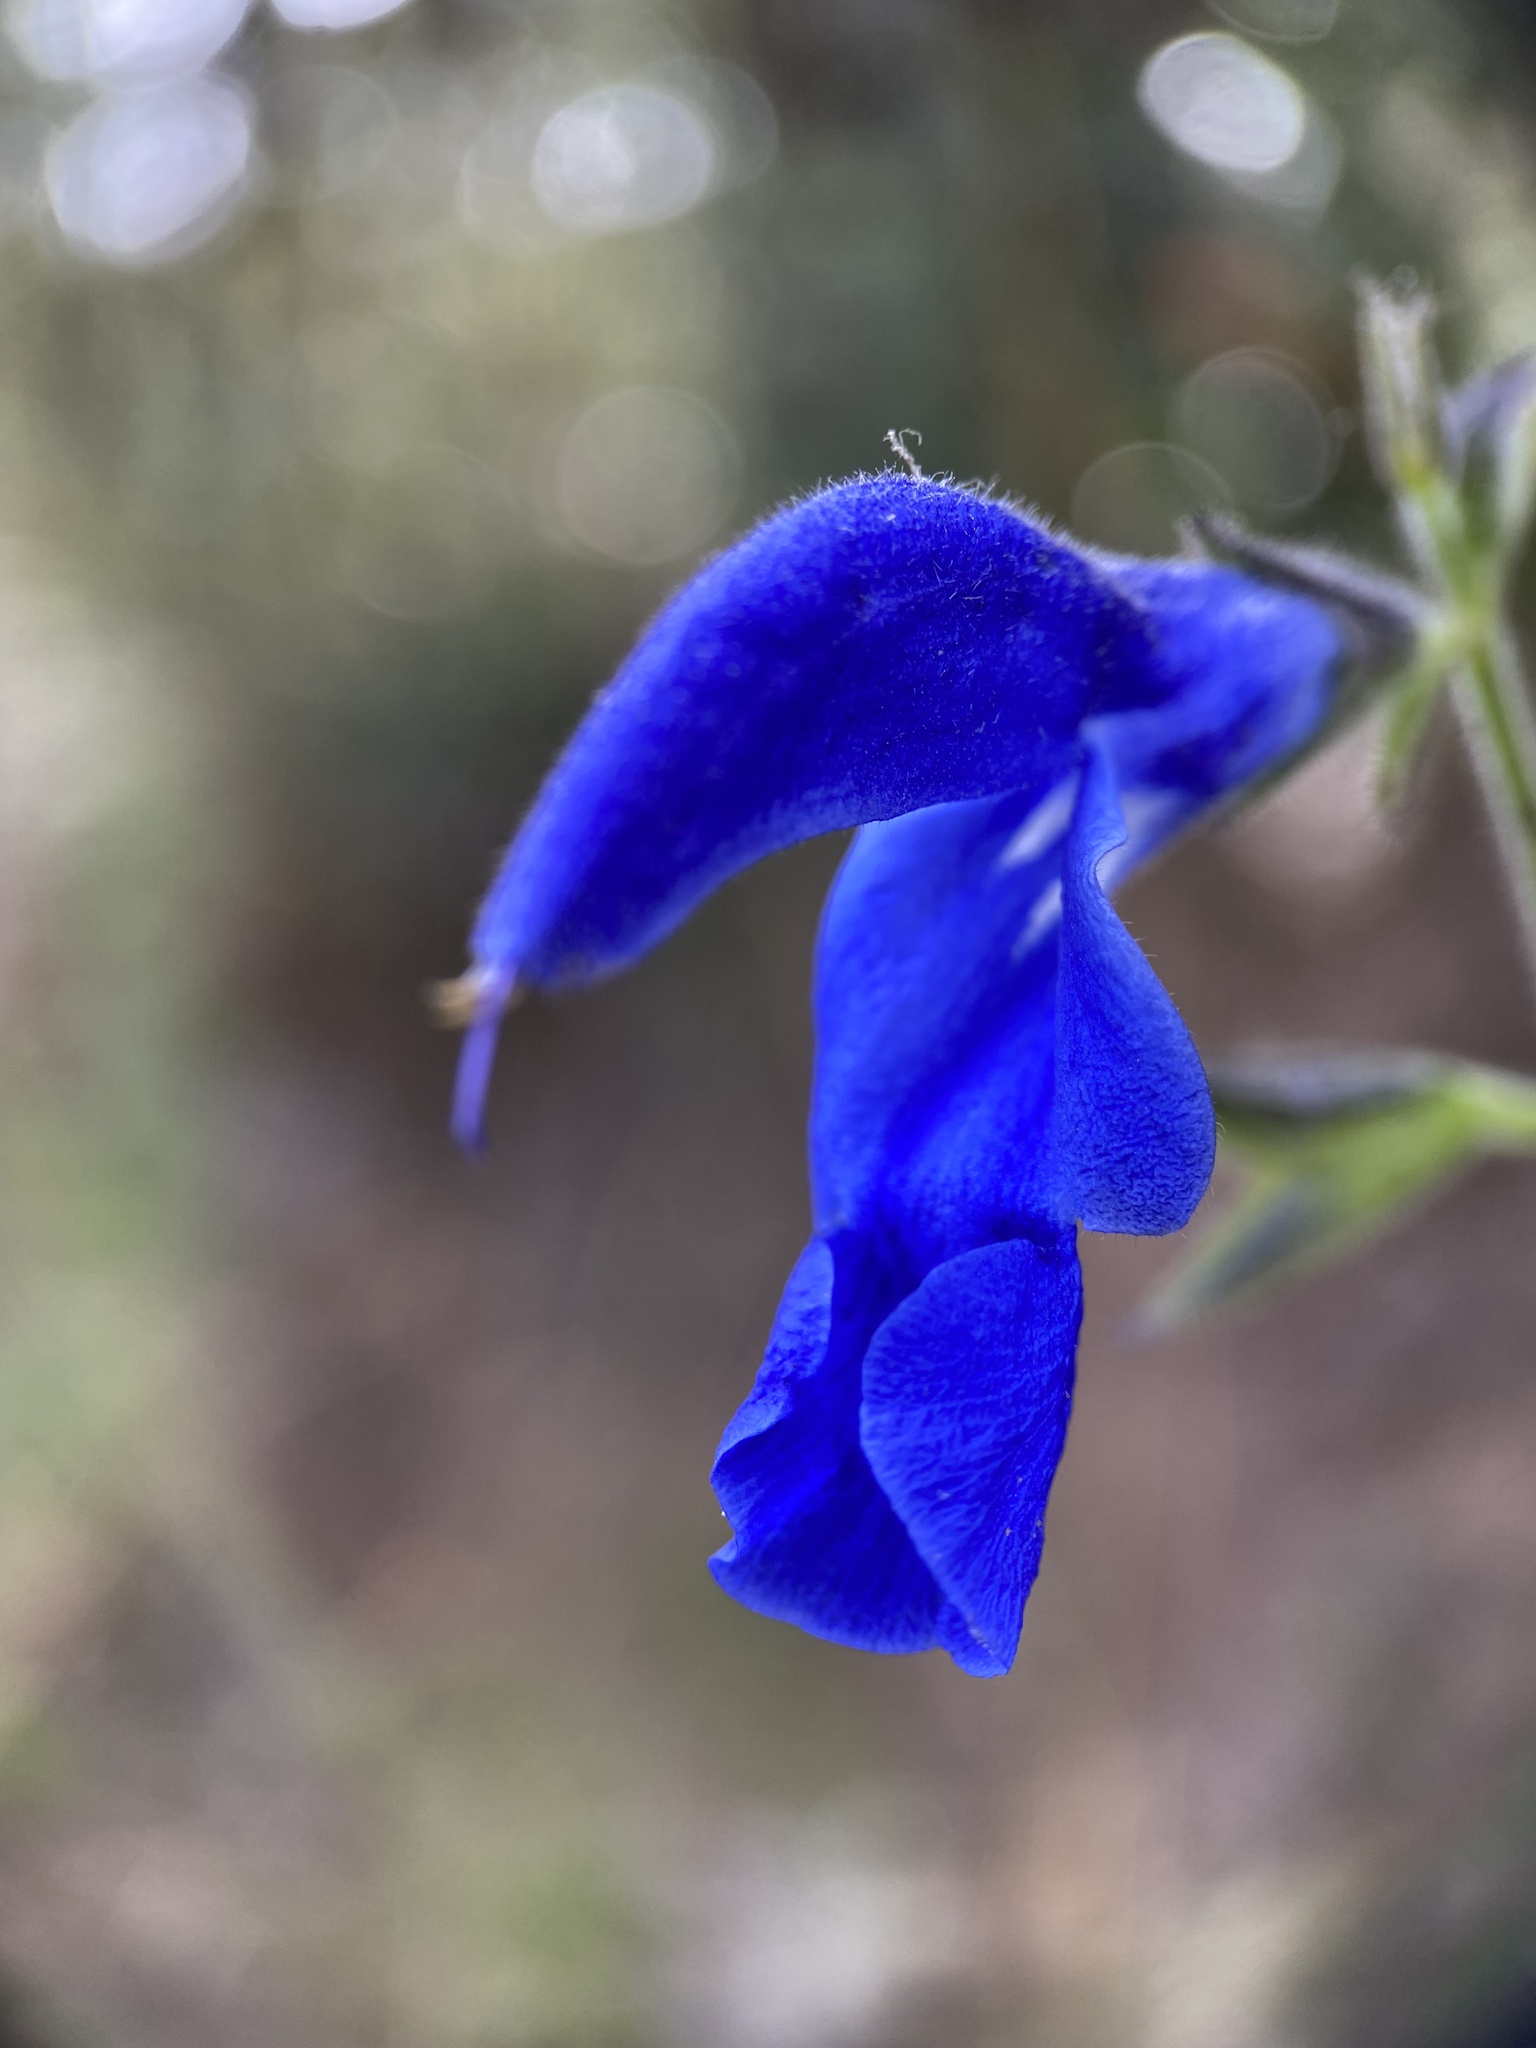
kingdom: Plantae
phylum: Tracheophyta
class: Magnoliopsida
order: Lamiales
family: Lamiaceae
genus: Salvia
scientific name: Salvia patens
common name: Blue sage
